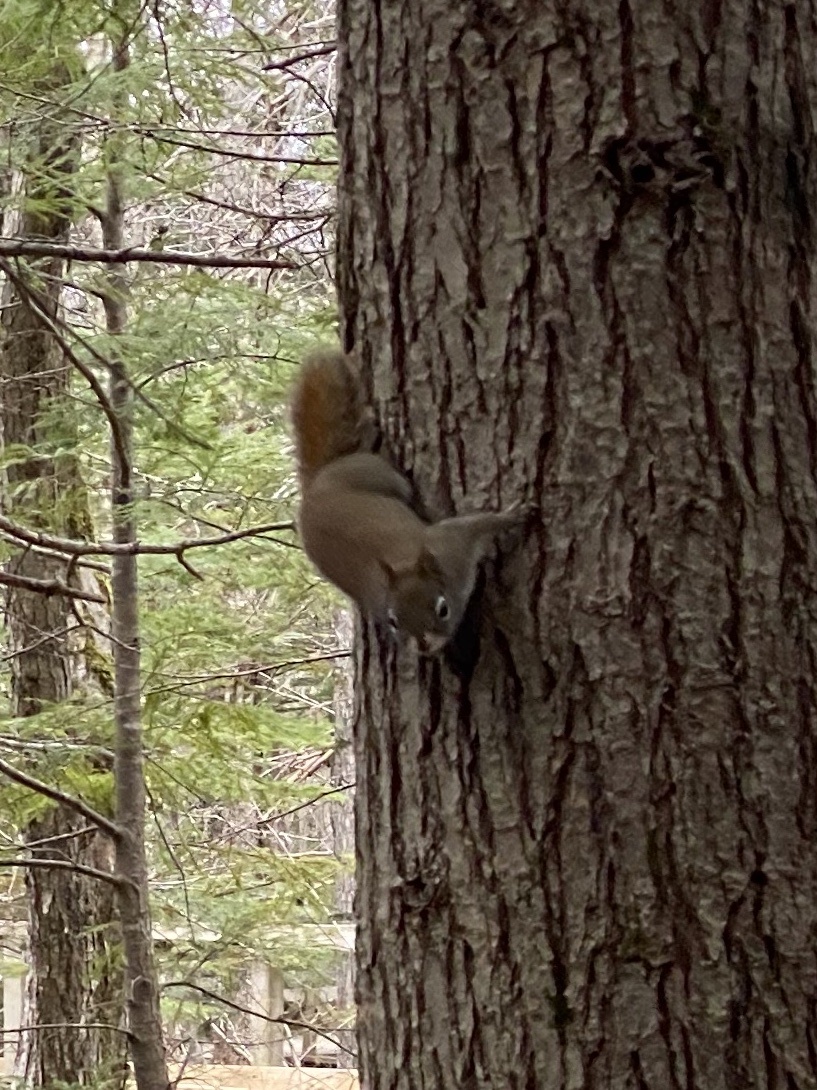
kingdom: Animalia
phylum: Chordata
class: Mammalia
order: Rodentia
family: Sciuridae
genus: Tamiasciurus
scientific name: Tamiasciurus hudsonicus
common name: Red squirrel
